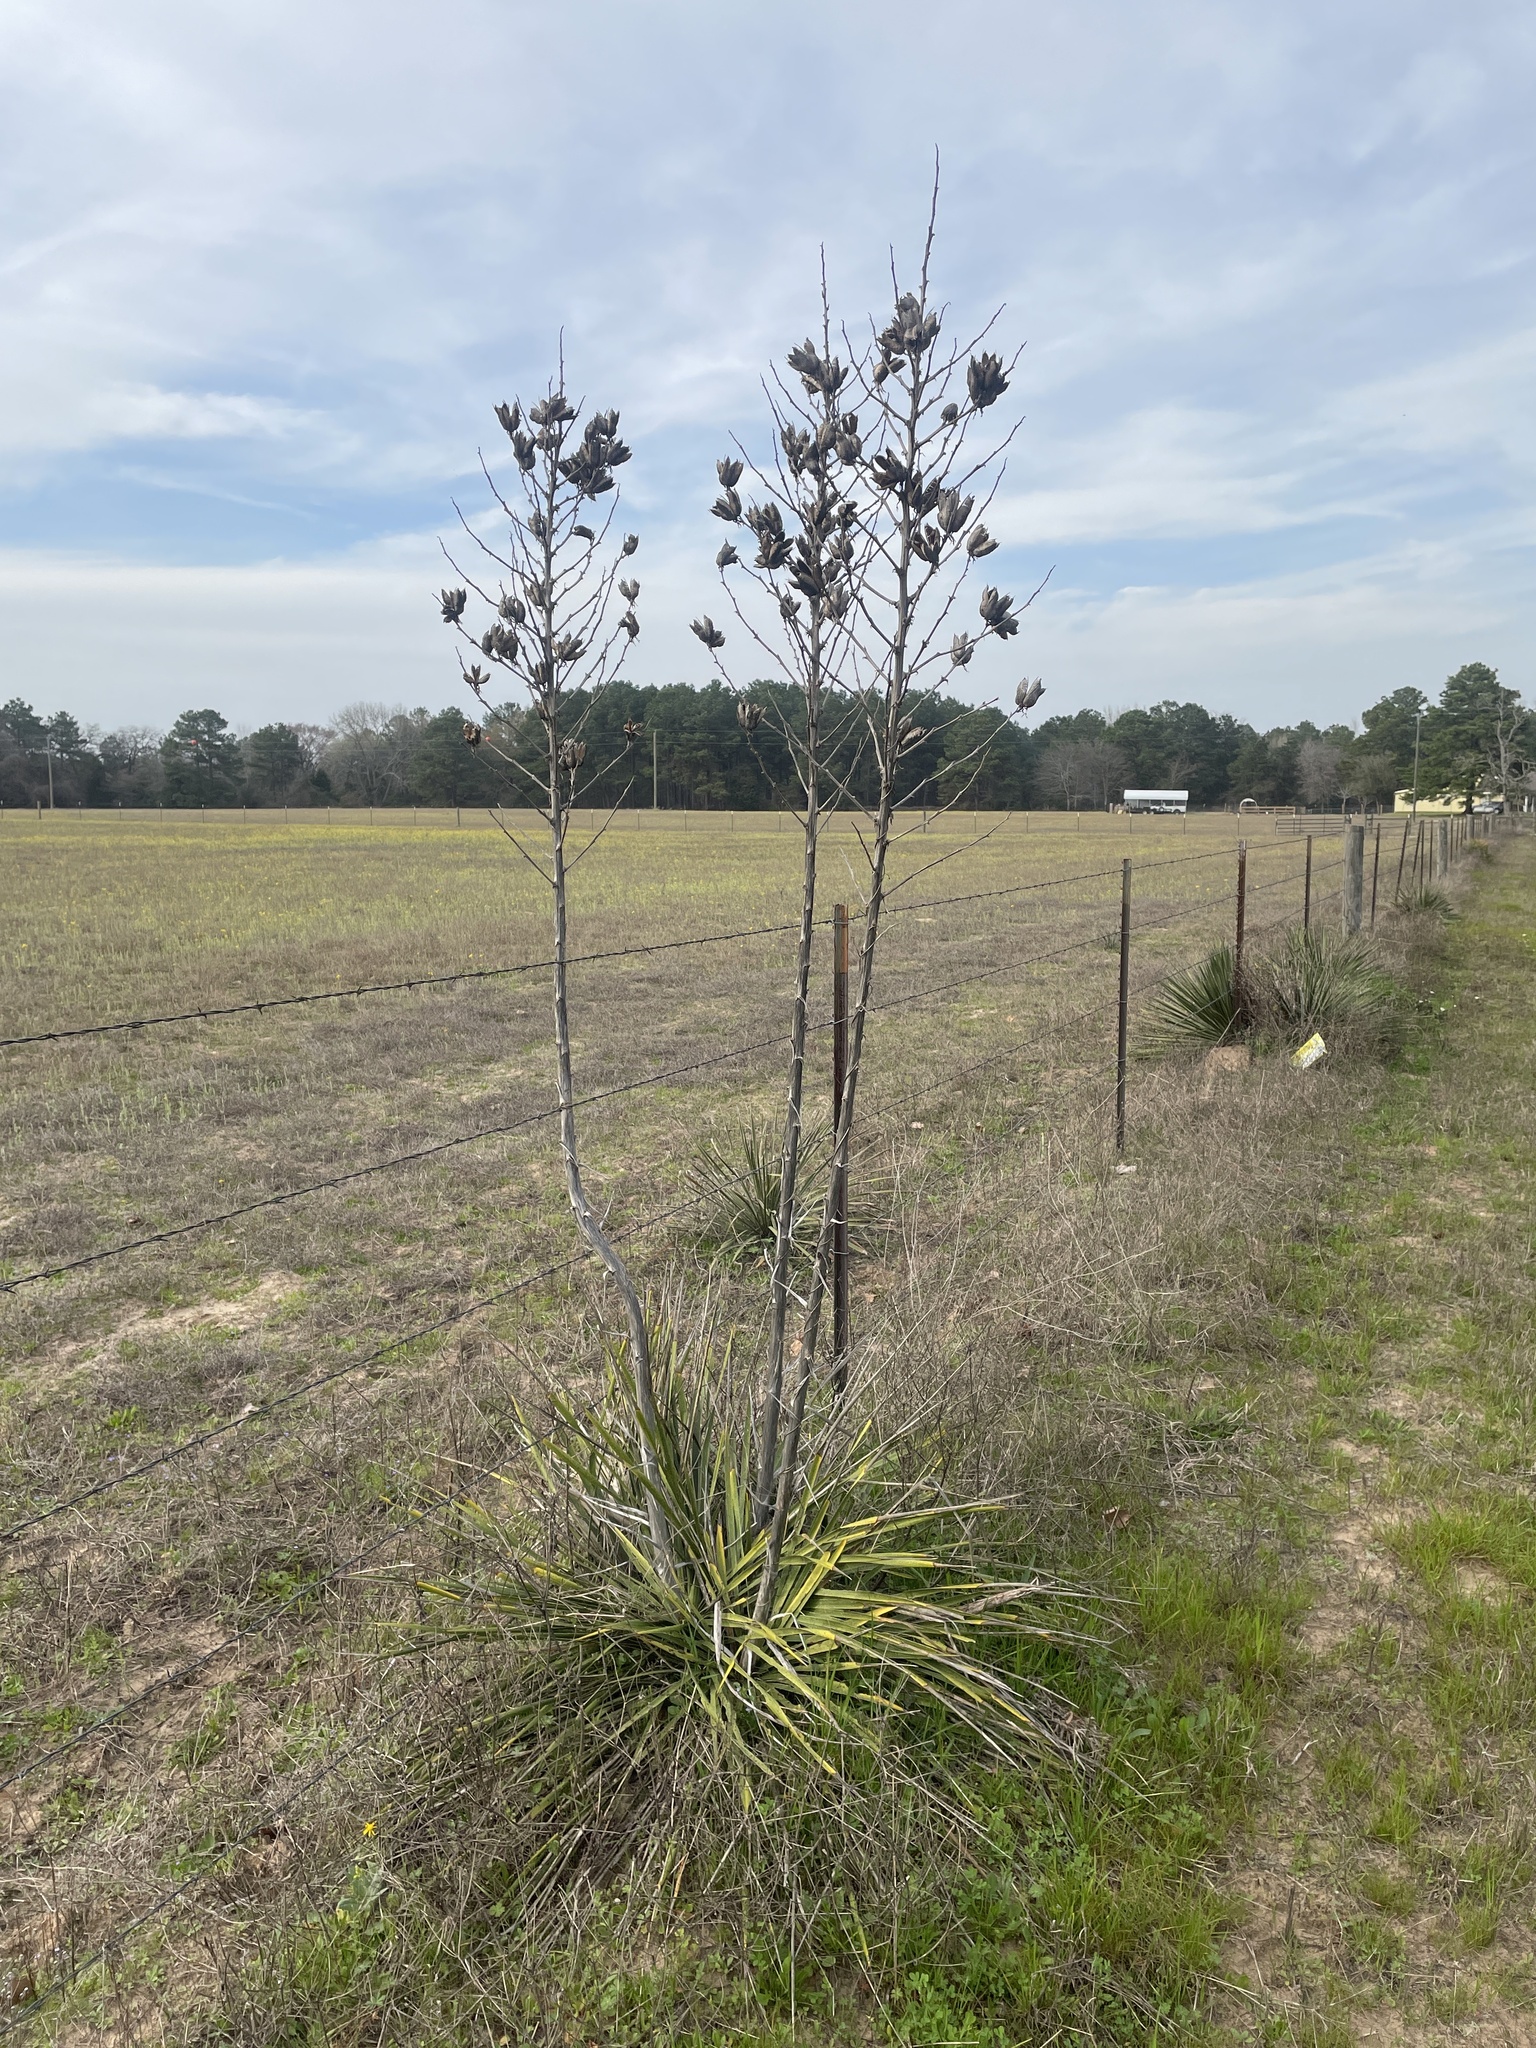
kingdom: Plantae
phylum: Tracheophyta
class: Liliopsida
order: Asparagales
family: Asparagaceae
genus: Yucca
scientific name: Yucca flaccida
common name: Adam's-needle
